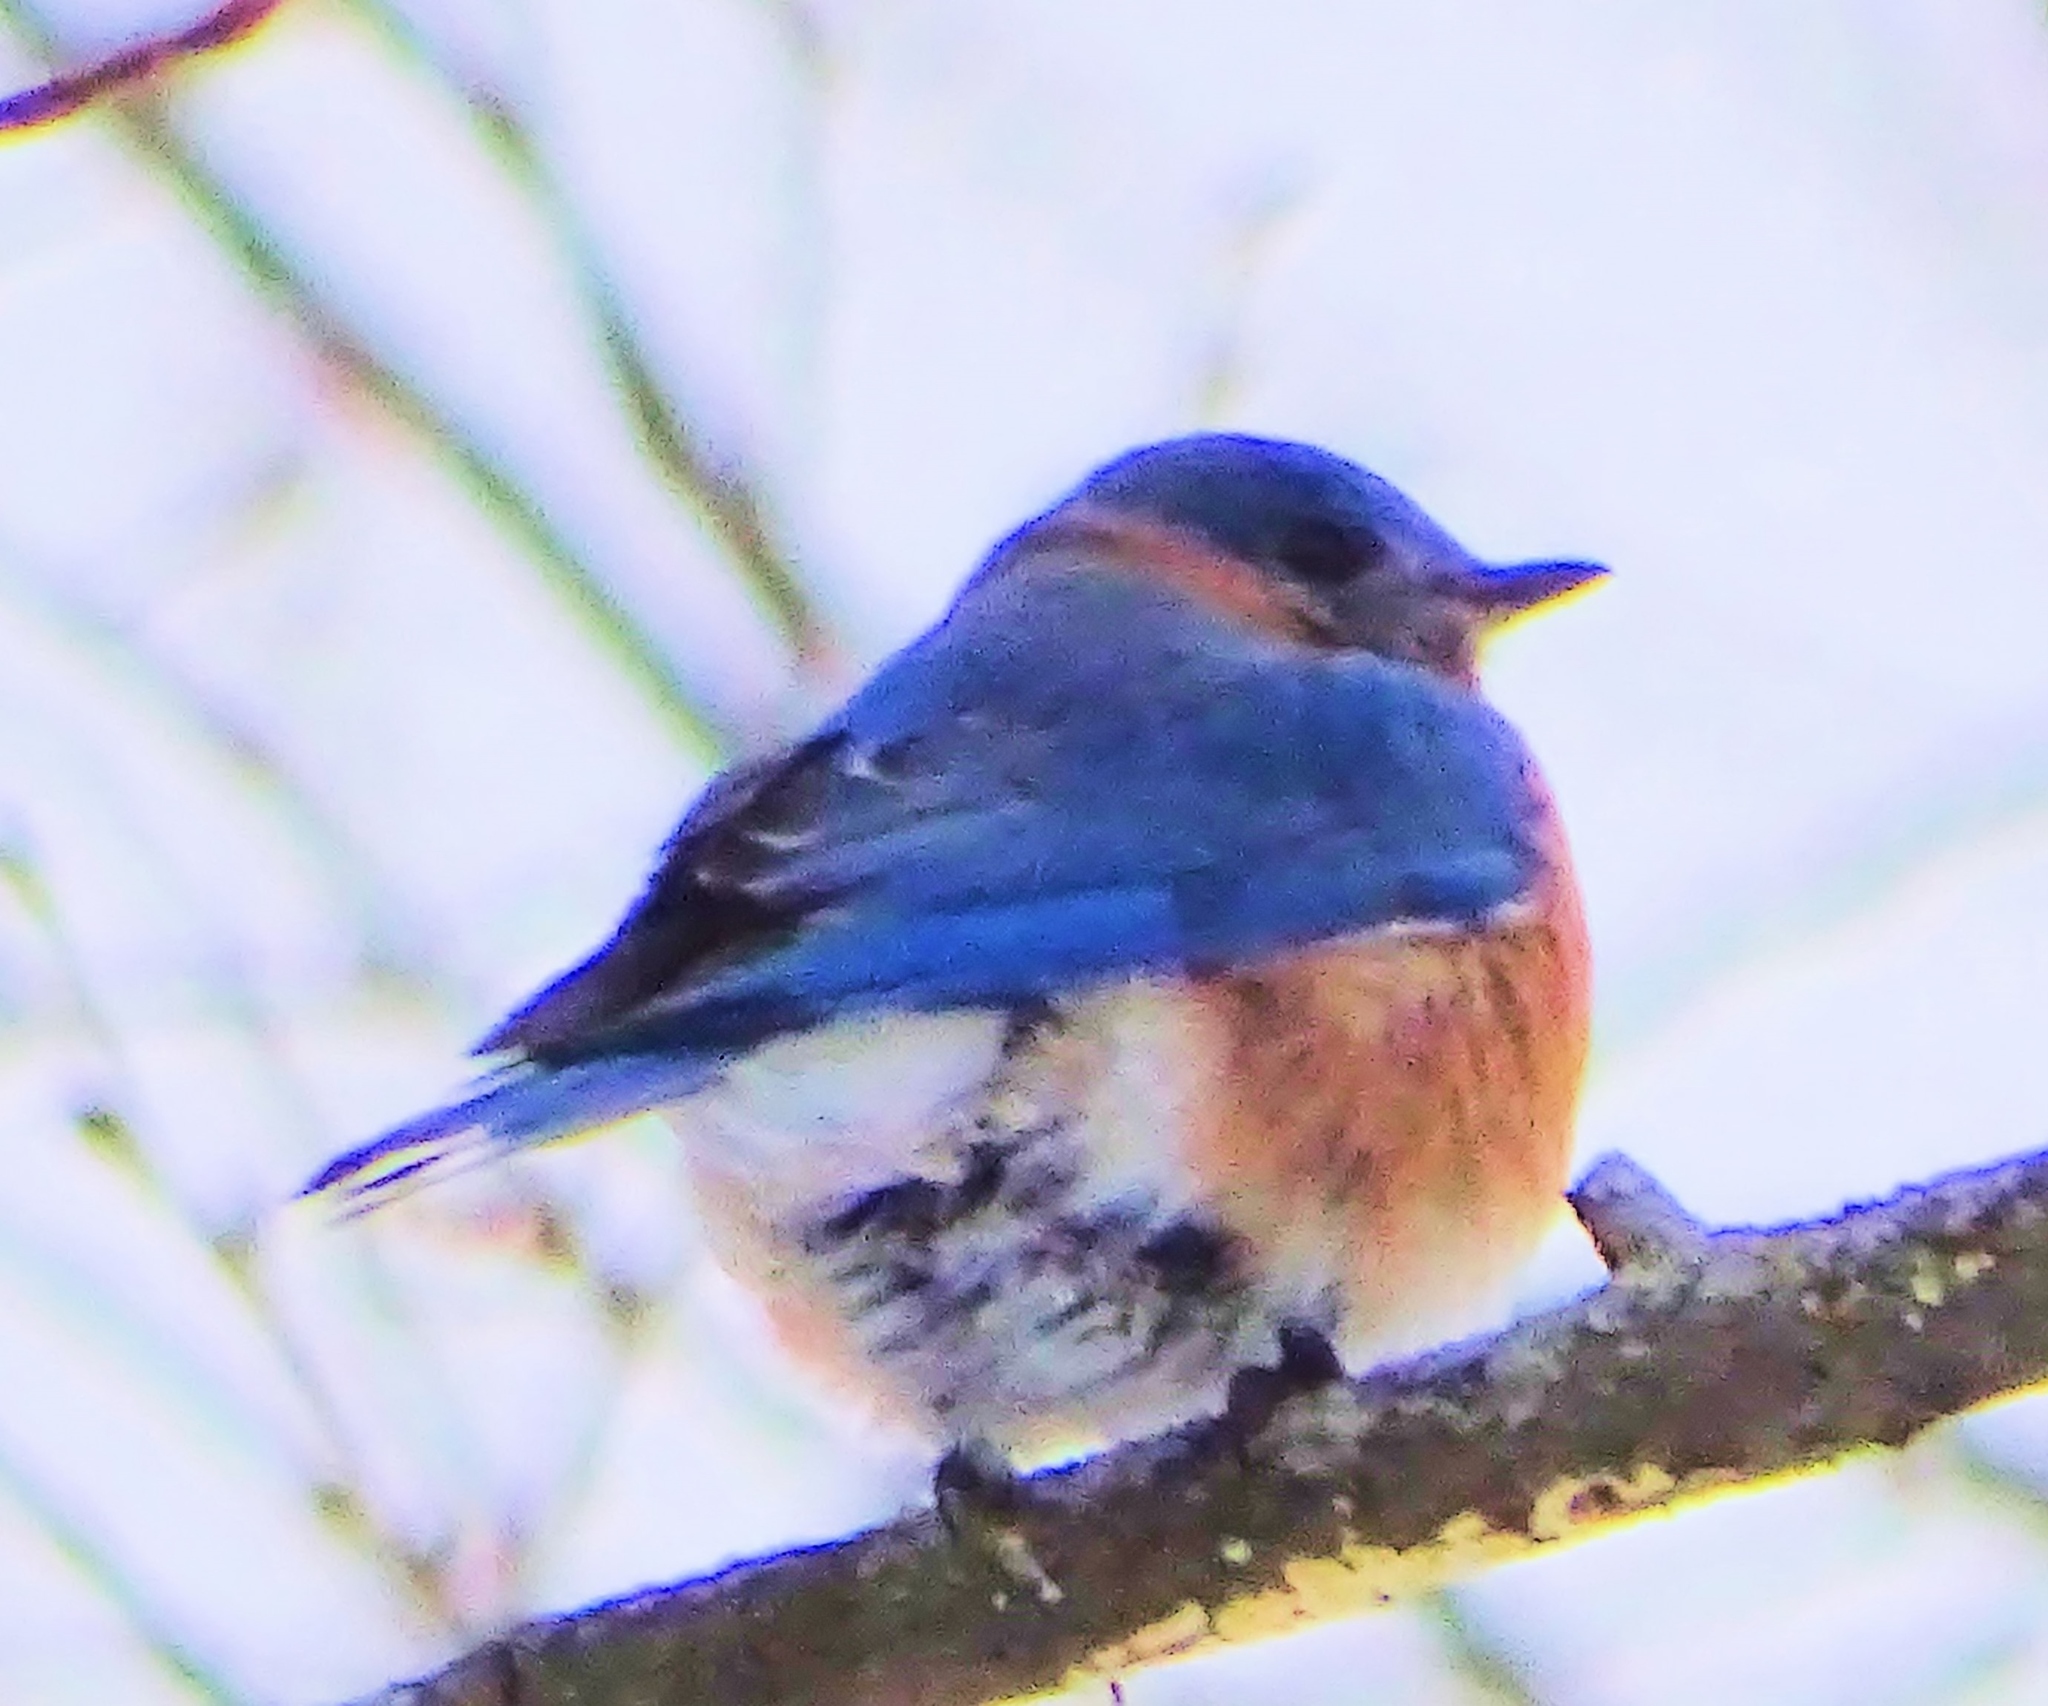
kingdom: Animalia
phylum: Chordata
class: Aves
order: Passeriformes
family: Turdidae
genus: Sialia
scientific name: Sialia sialis
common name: Eastern bluebird
